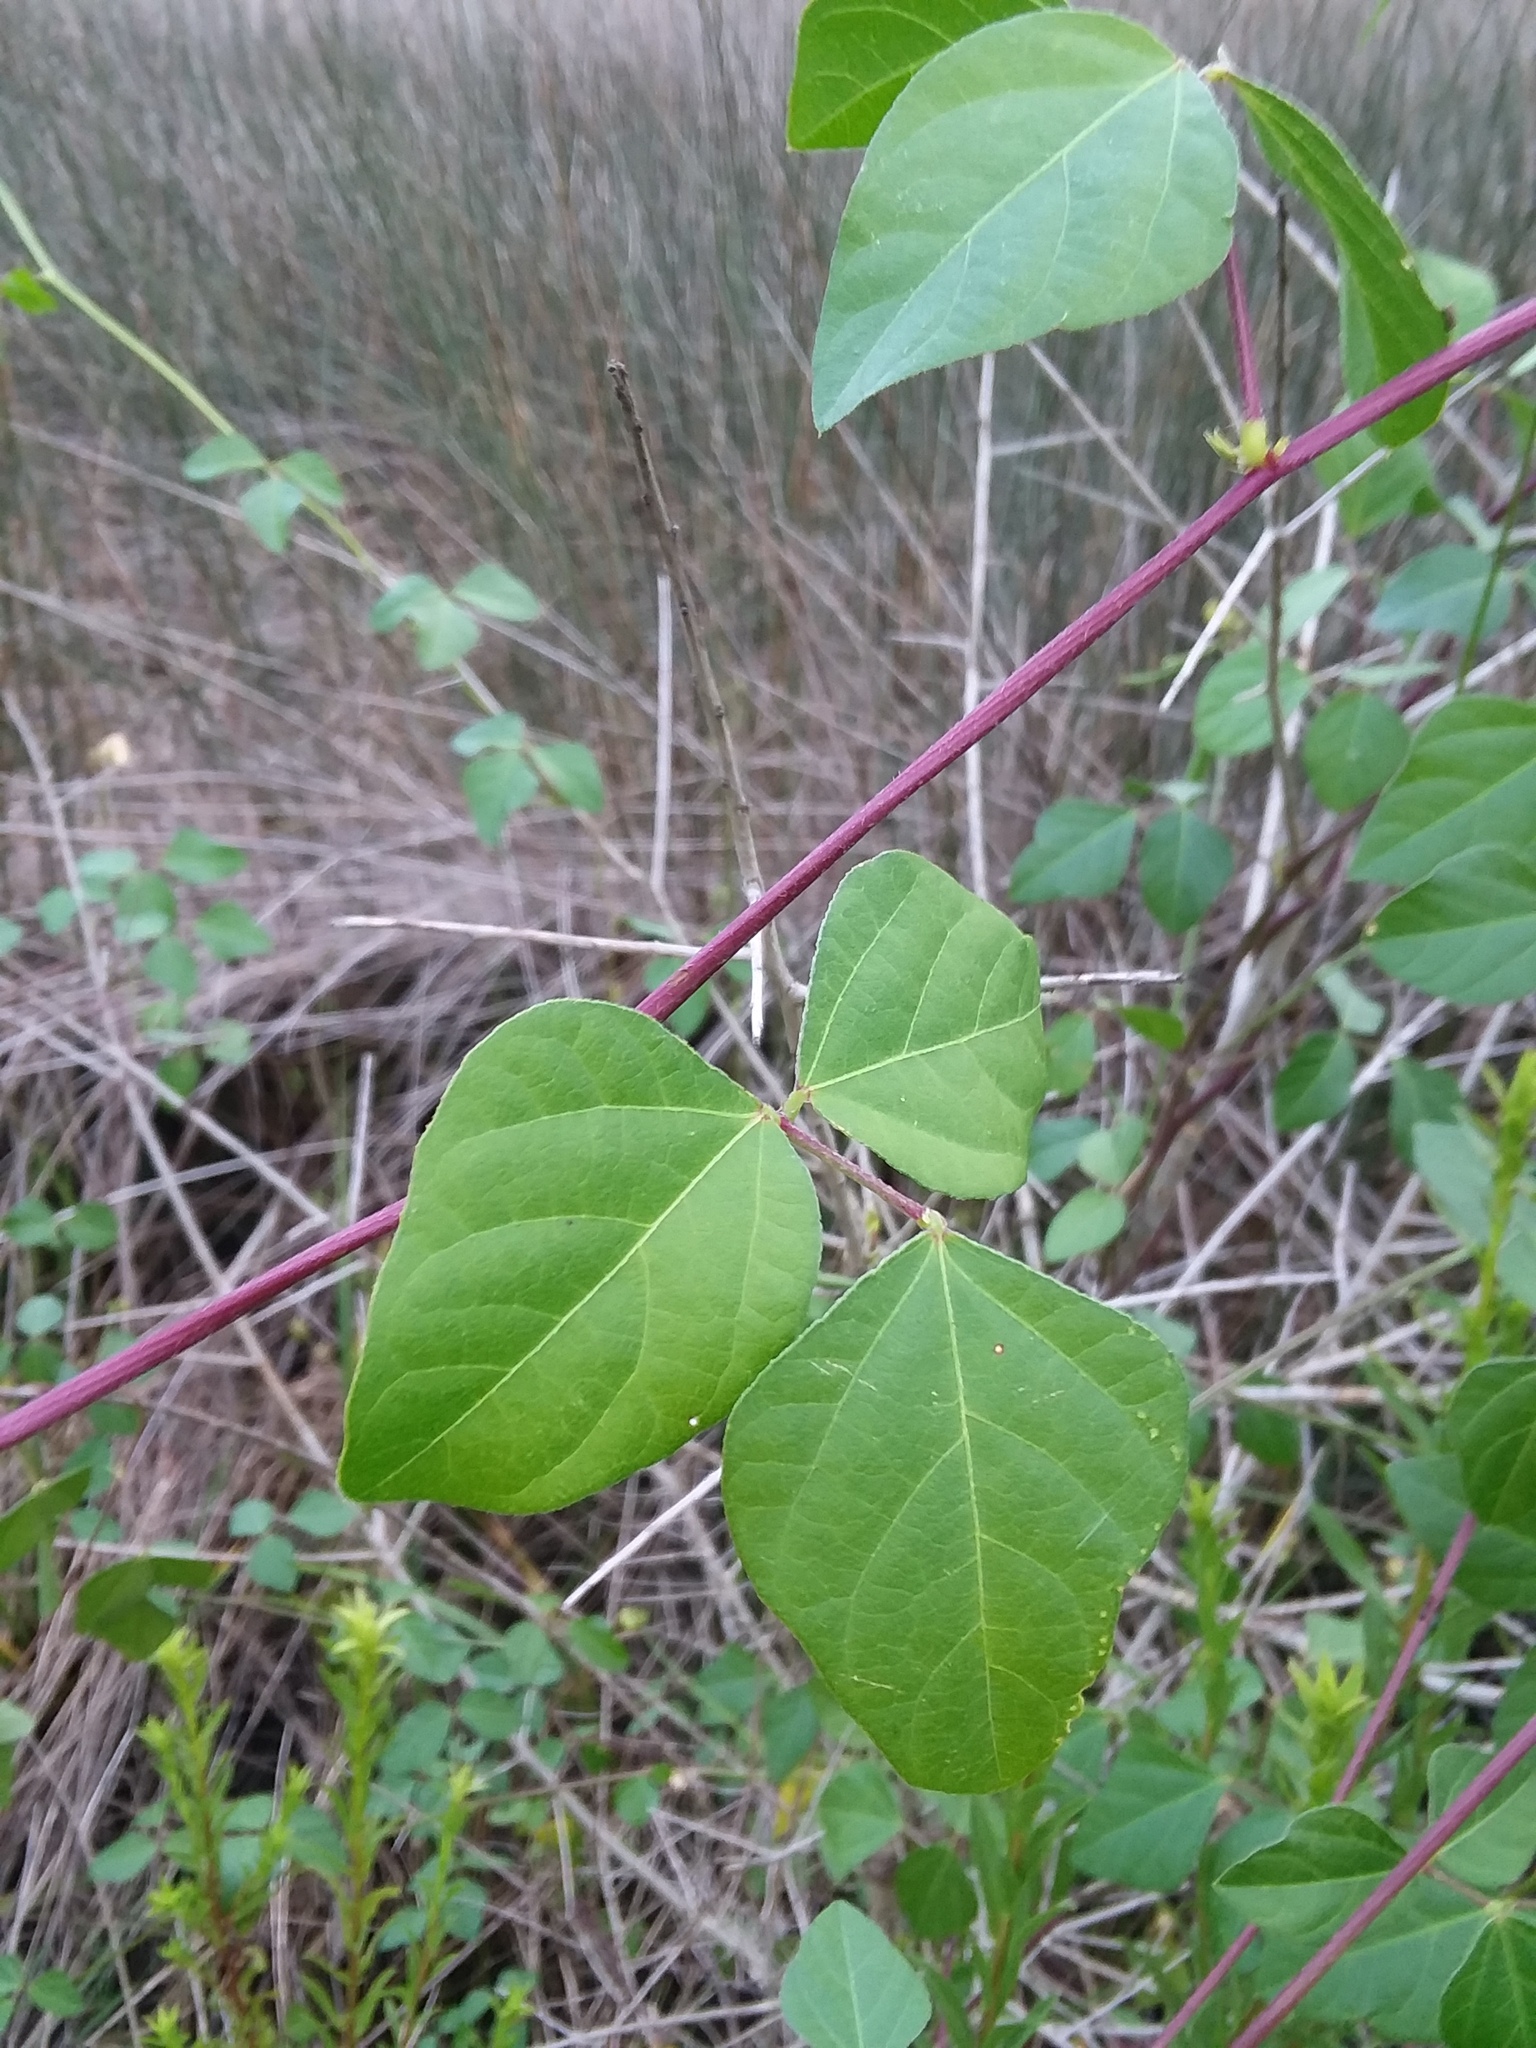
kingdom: Plantae
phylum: Tracheophyta
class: Magnoliopsida
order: Fabales
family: Fabaceae
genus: Strophostyles
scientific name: Strophostyles helvola
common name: Trailing wild bean
